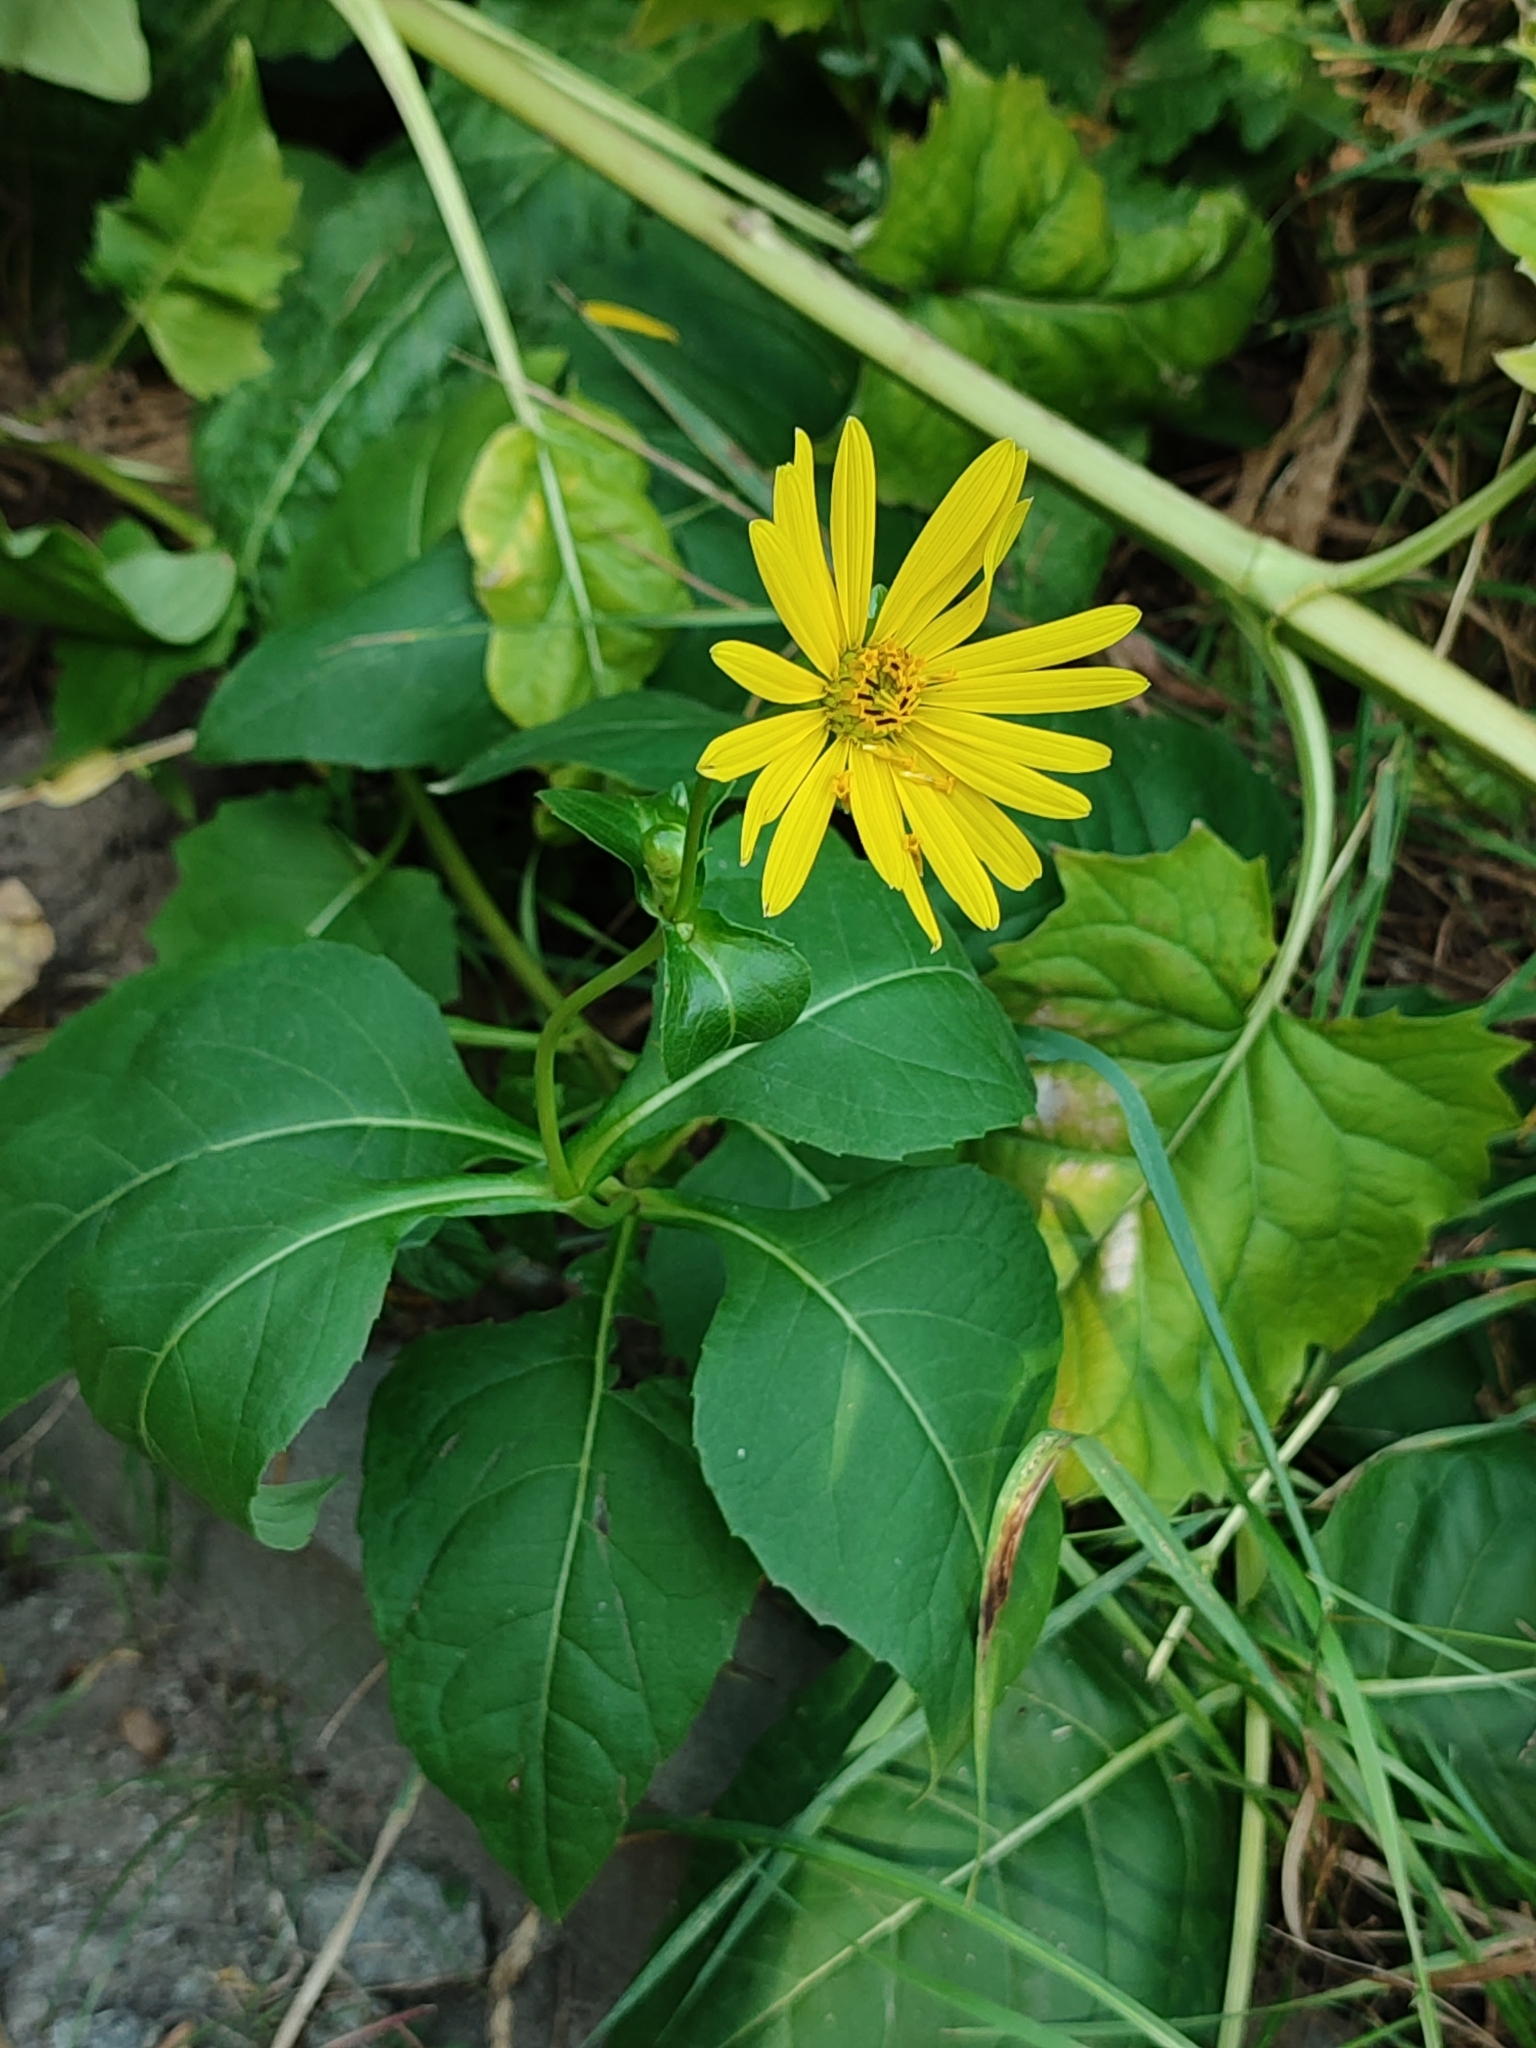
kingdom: Plantae
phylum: Tracheophyta
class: Magnoliopsida
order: Asterales
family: Asteraceae
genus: Silphium
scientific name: Silphium perfoliatum
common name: Cup-plant
